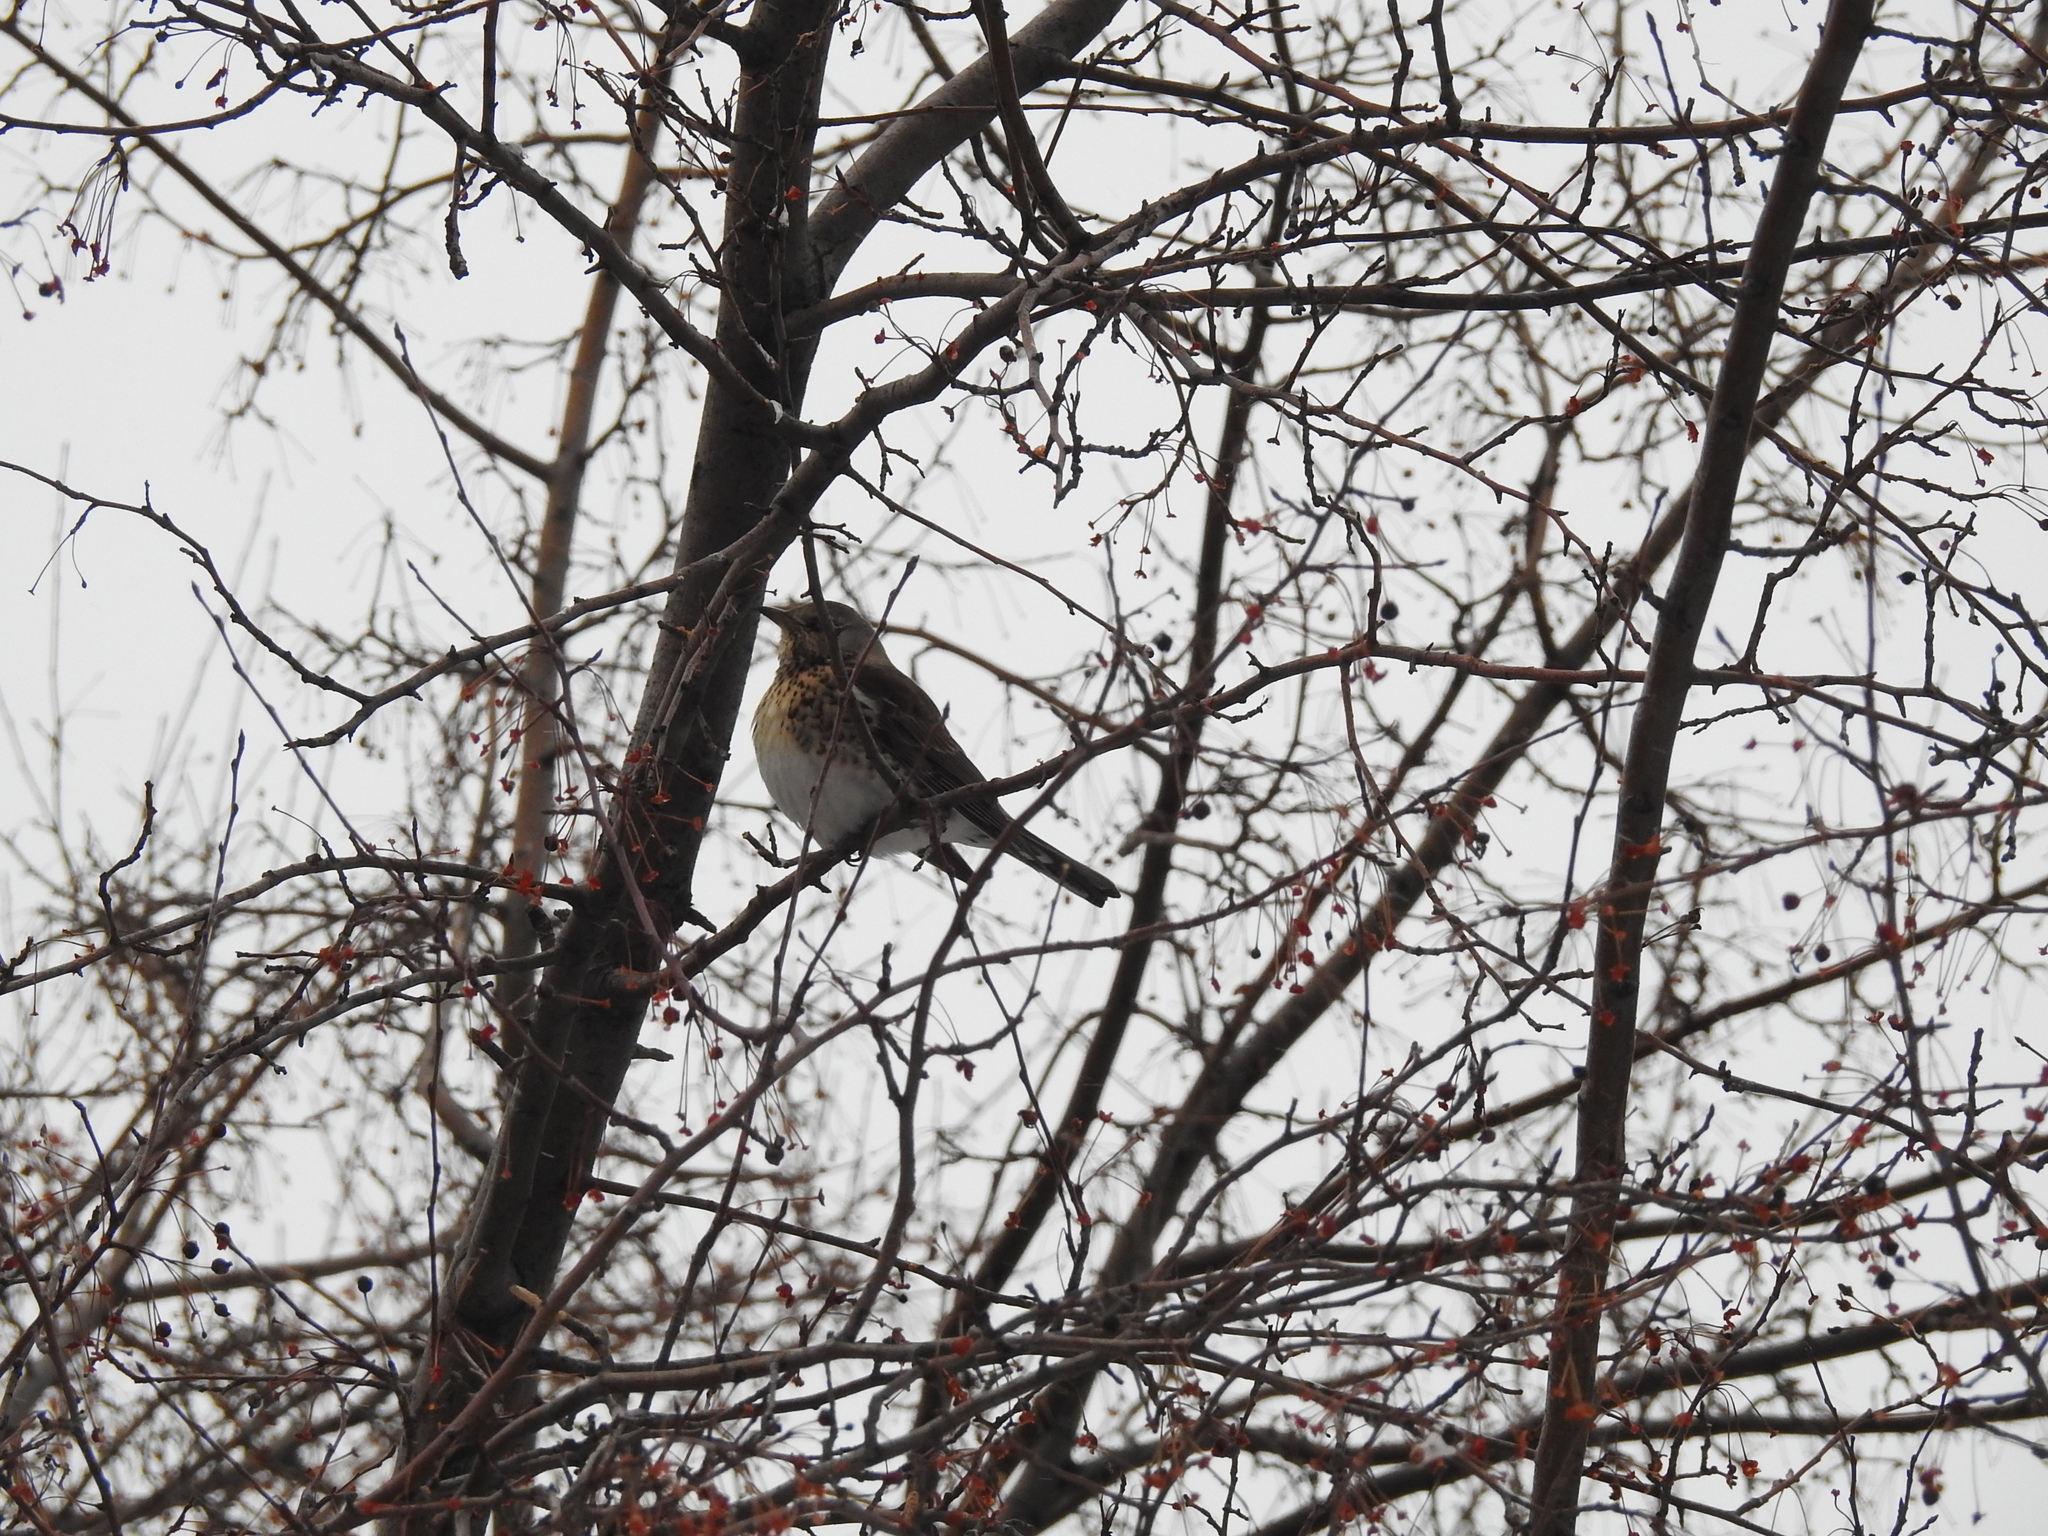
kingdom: Animalia
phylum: Chordata
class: Aves
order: Passeriformes
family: Turdidae
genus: Turdus
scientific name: Turdus pilaris
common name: Fieldfare
